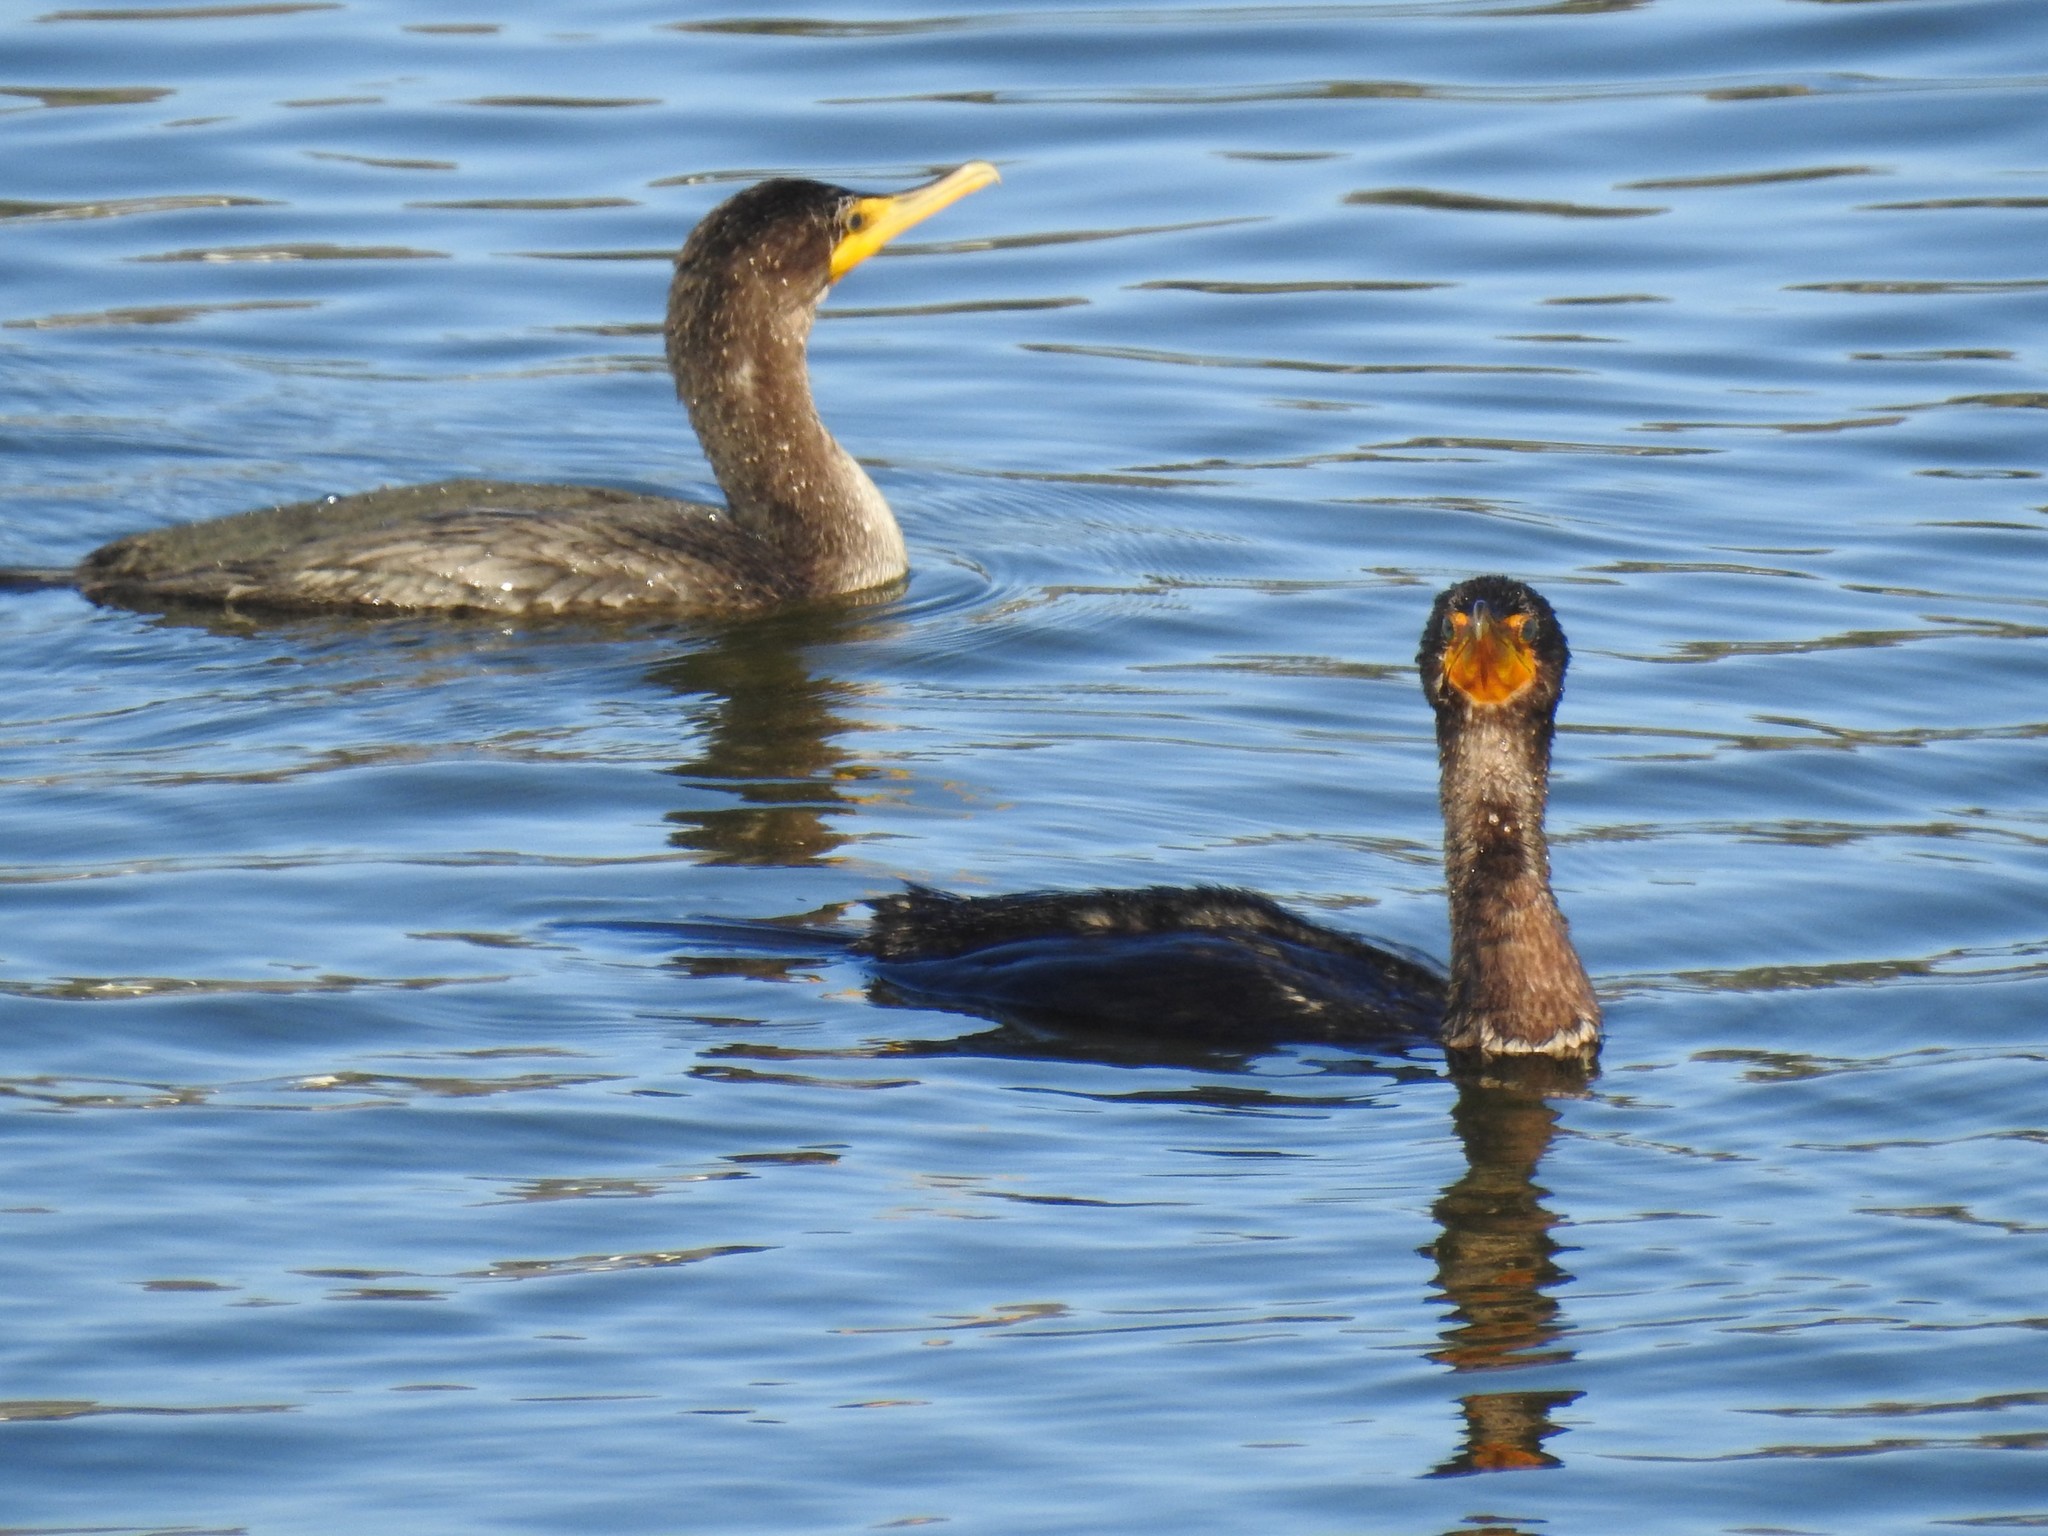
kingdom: Animalia
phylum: Chordata
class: Aves
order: Suliformes
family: Phalacrocoracidae
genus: Phalacrocorax
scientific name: Phalacrocorax auritus
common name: Double-crested cormorant
